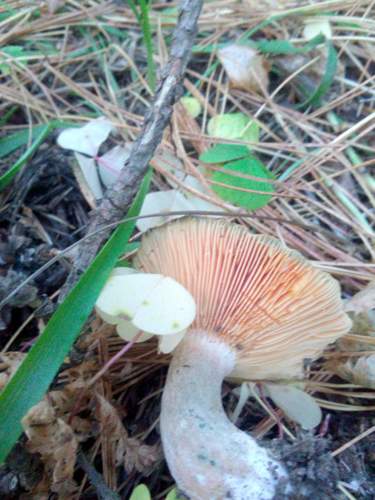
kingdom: Fungi
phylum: Basidiomycota
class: Agaricomycetes
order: Russulales
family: Russulaceae
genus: Lactarius
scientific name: Lactarius deliciosus
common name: Saffron milk-cap
